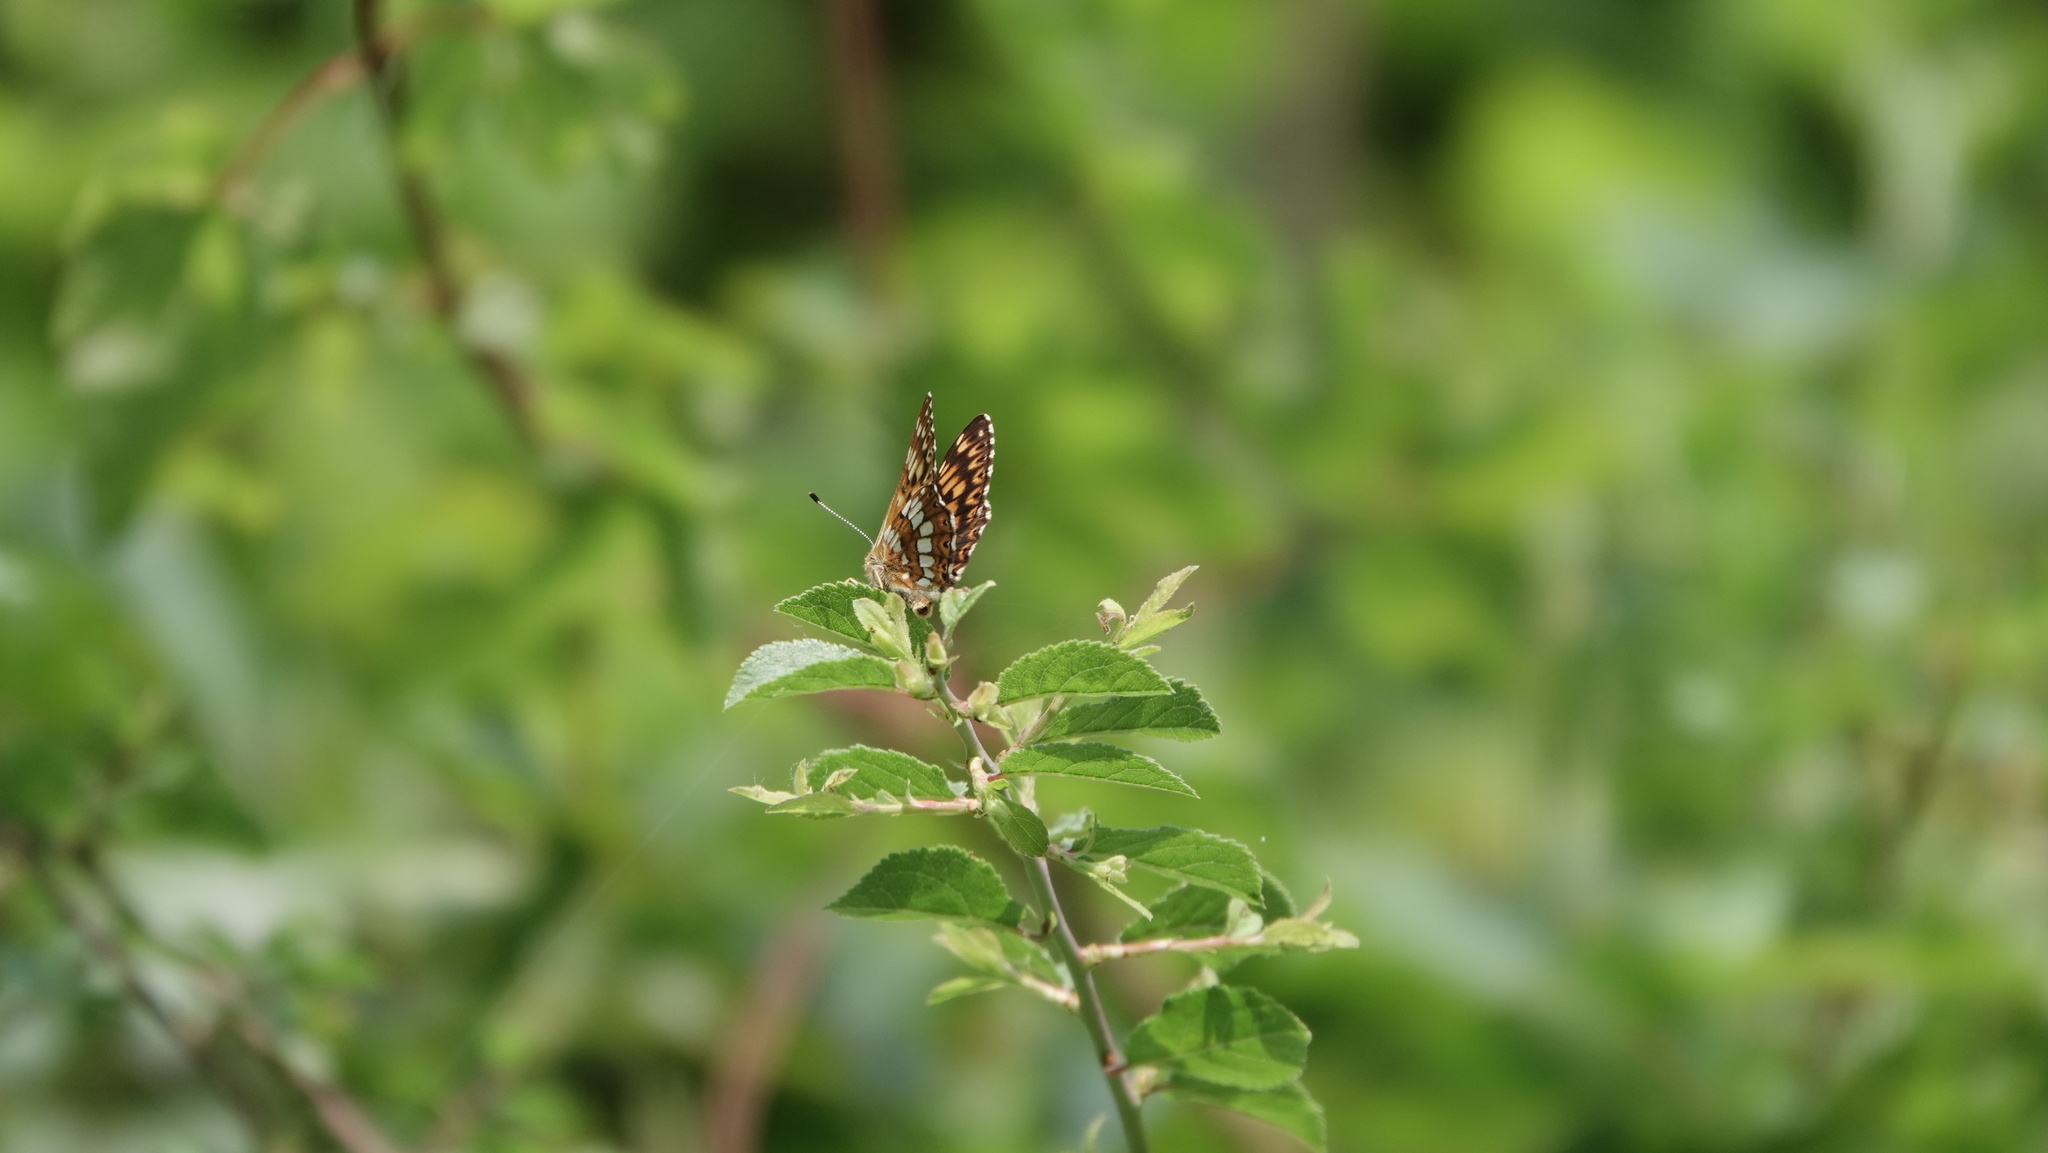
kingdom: Animalia
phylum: Arthropoda
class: Insecta
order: Lepidoptera
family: Riodinidae
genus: Hamearis
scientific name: Hamearis lucina
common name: Duke of burgundy fritillary
